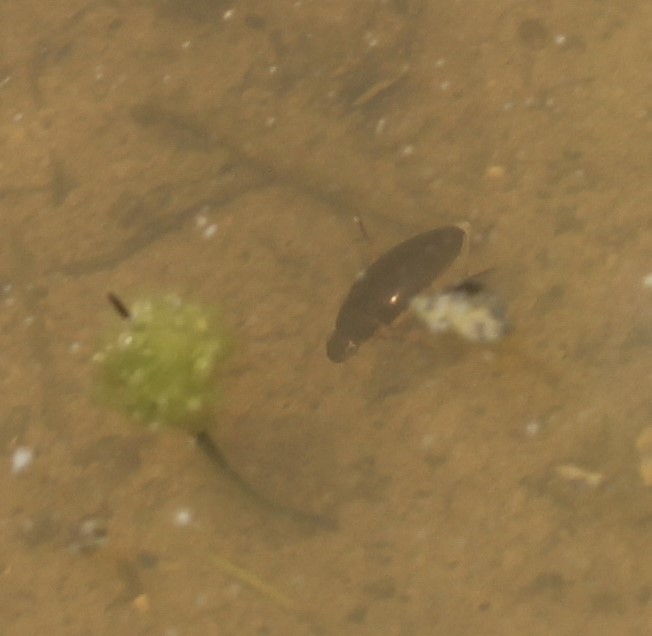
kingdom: Animalia
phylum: Arthropoda
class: Insecta
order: Coleoptera
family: Hydrophilidae
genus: Tropisternus
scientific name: Tropisternus lateralis
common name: Lateral-banded water scavenger beetle
